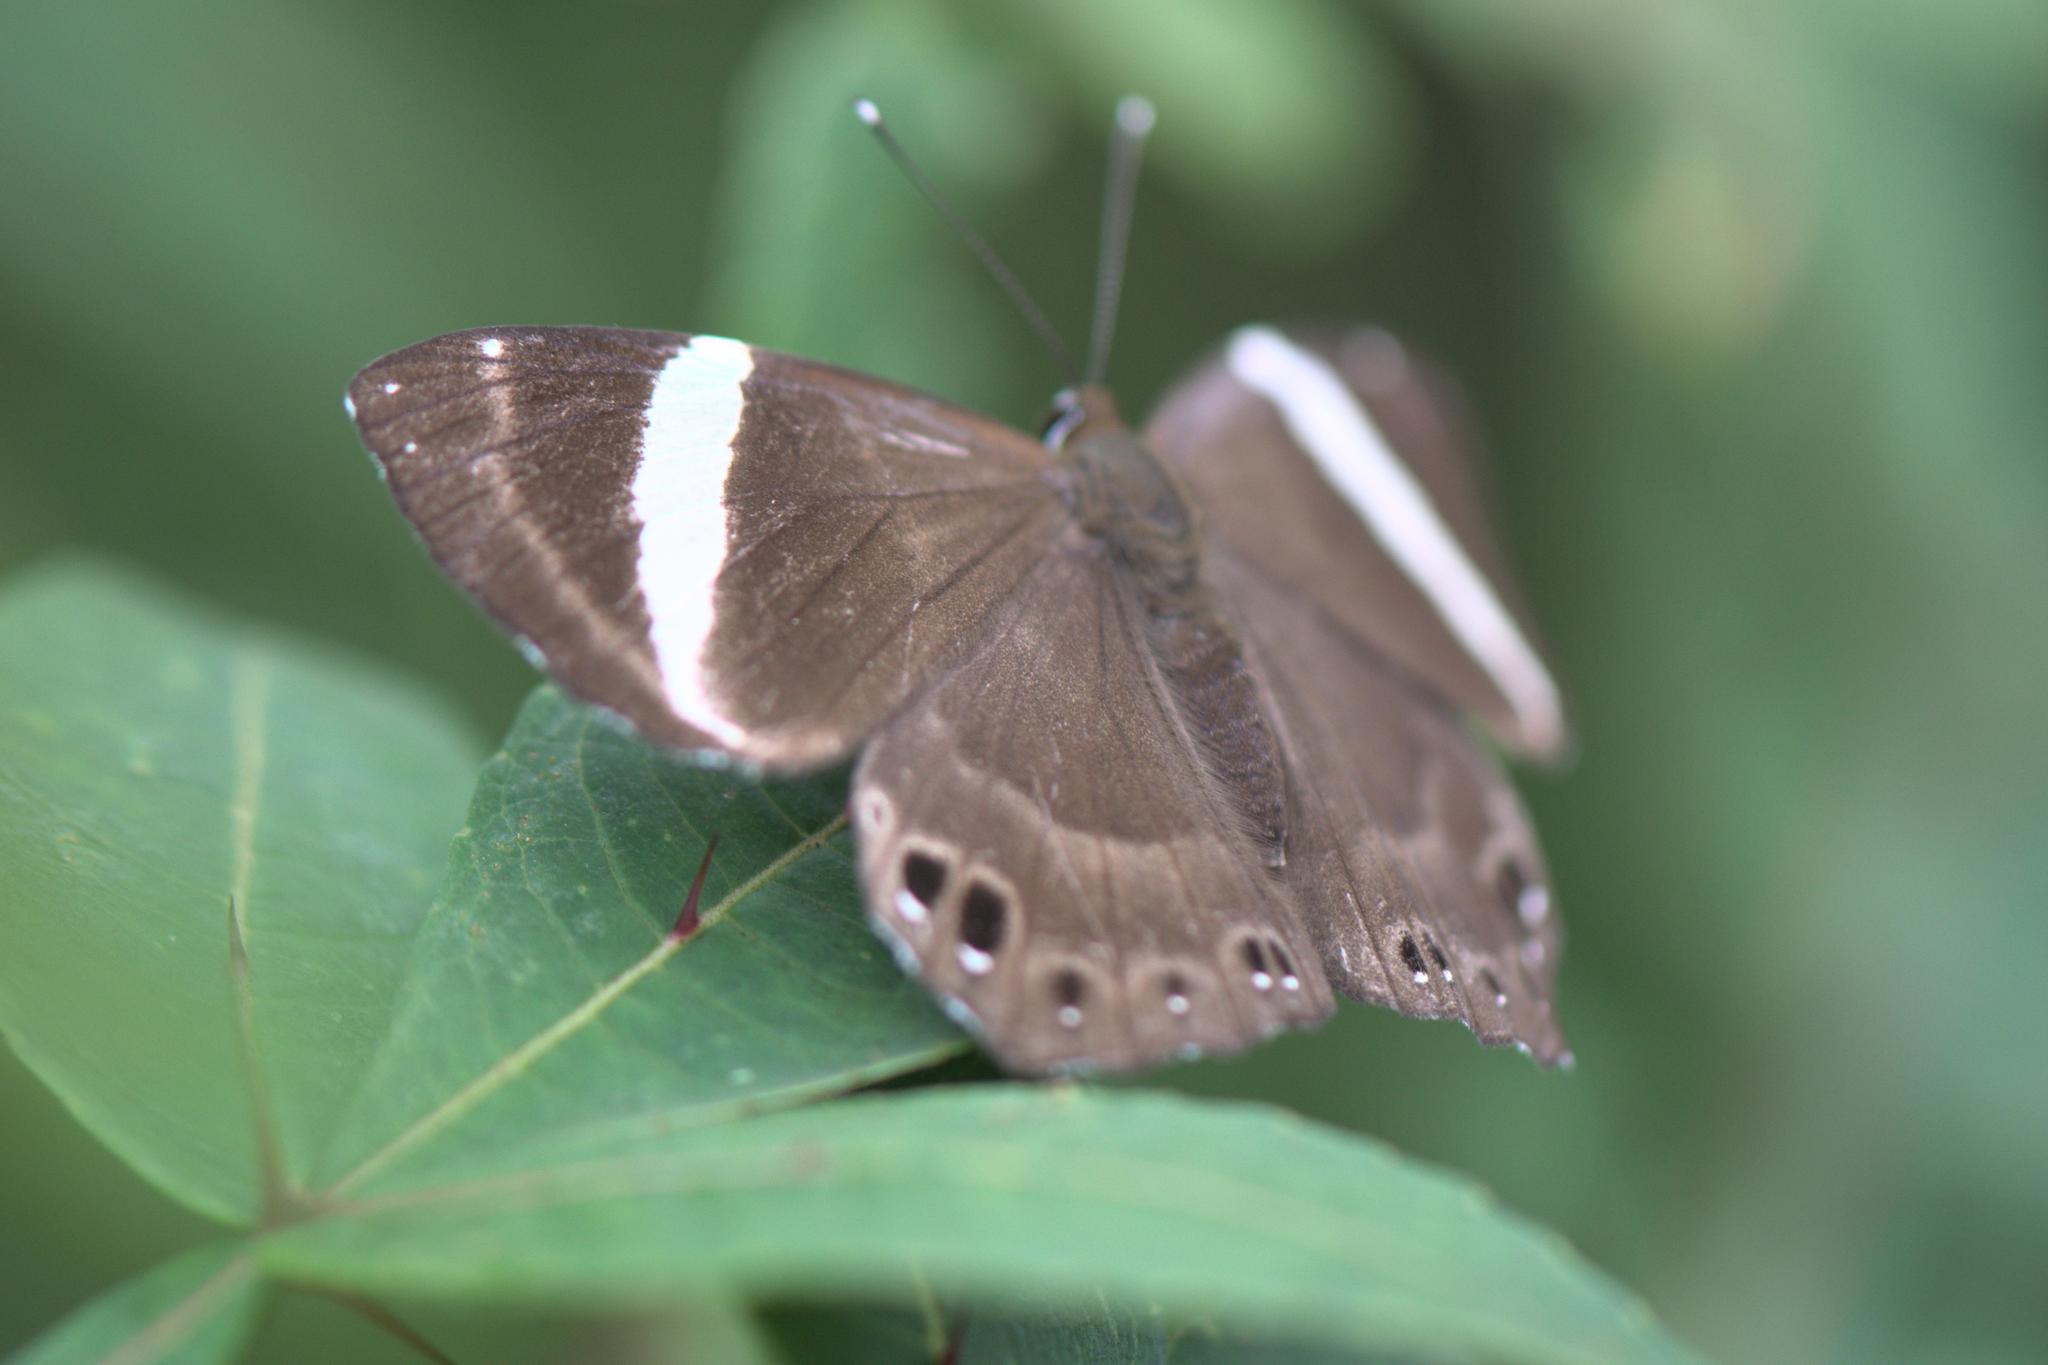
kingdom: Animalia
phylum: Arthropoda
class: Insecta
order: Lepidoptera
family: Lycaenidae
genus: Abisara
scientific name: Abisara fylla
